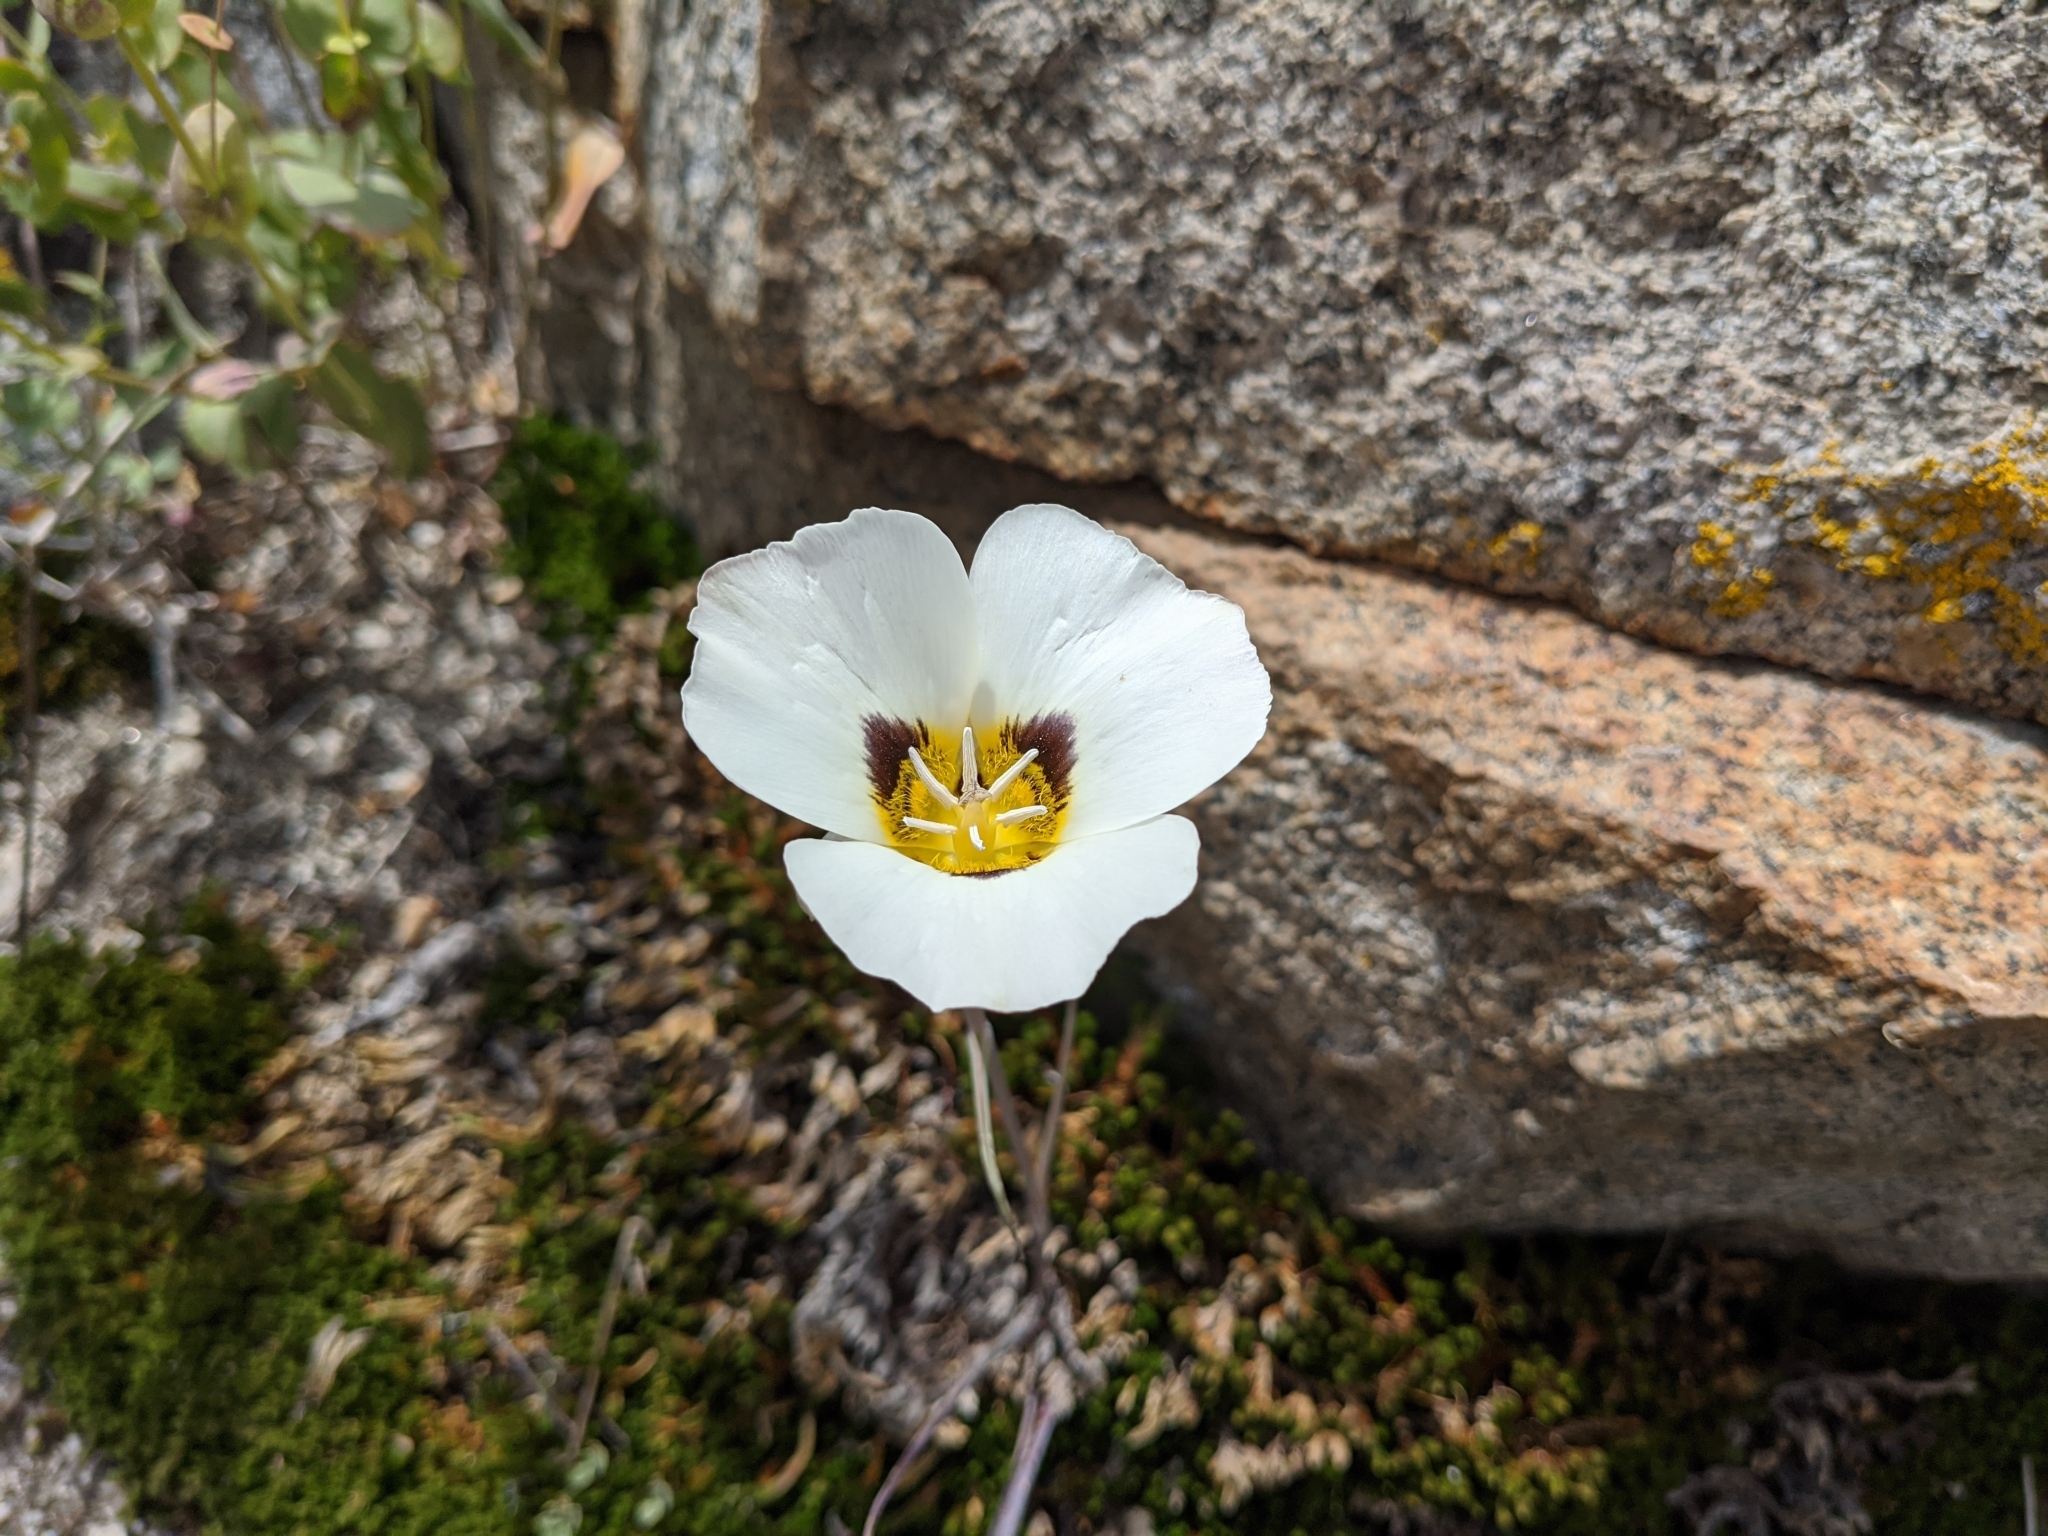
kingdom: Plantae
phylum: Tracheophyta
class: Liliopsida
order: Liliales
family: Liliaceae
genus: Calochortus
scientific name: Calochortus leichtlinii
